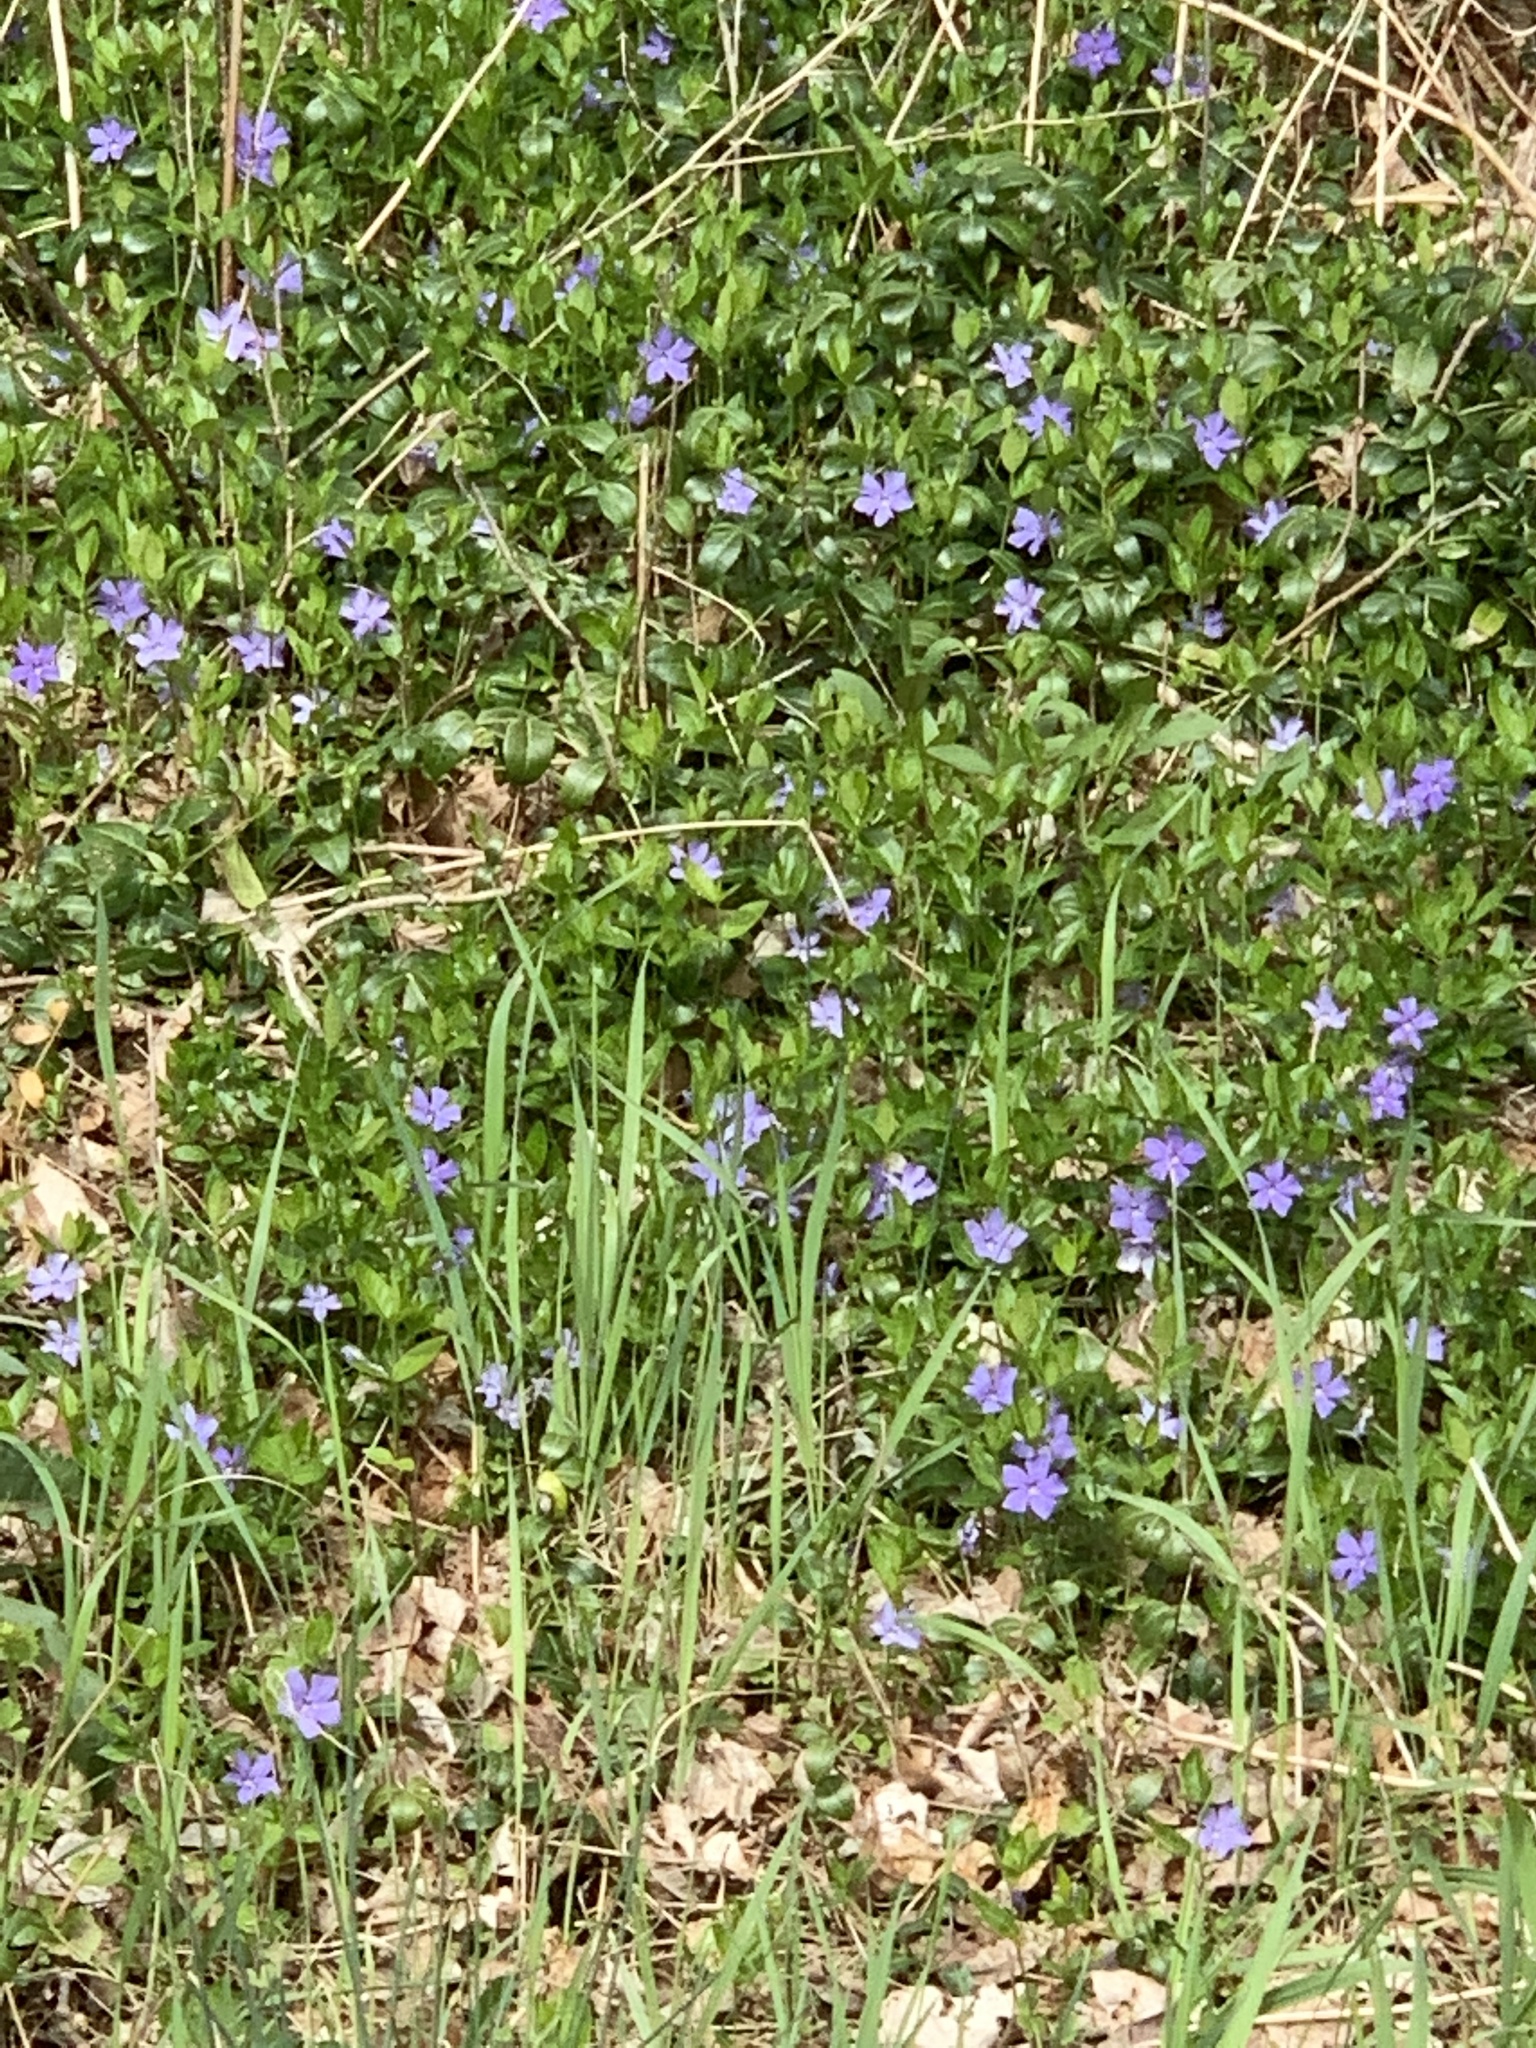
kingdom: Plantae
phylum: Tracheophyta
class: Magnoliopsida
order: Gentianales
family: Apocynaceae
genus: Vinca
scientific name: Vinca minor
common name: Lesser periwinkle
